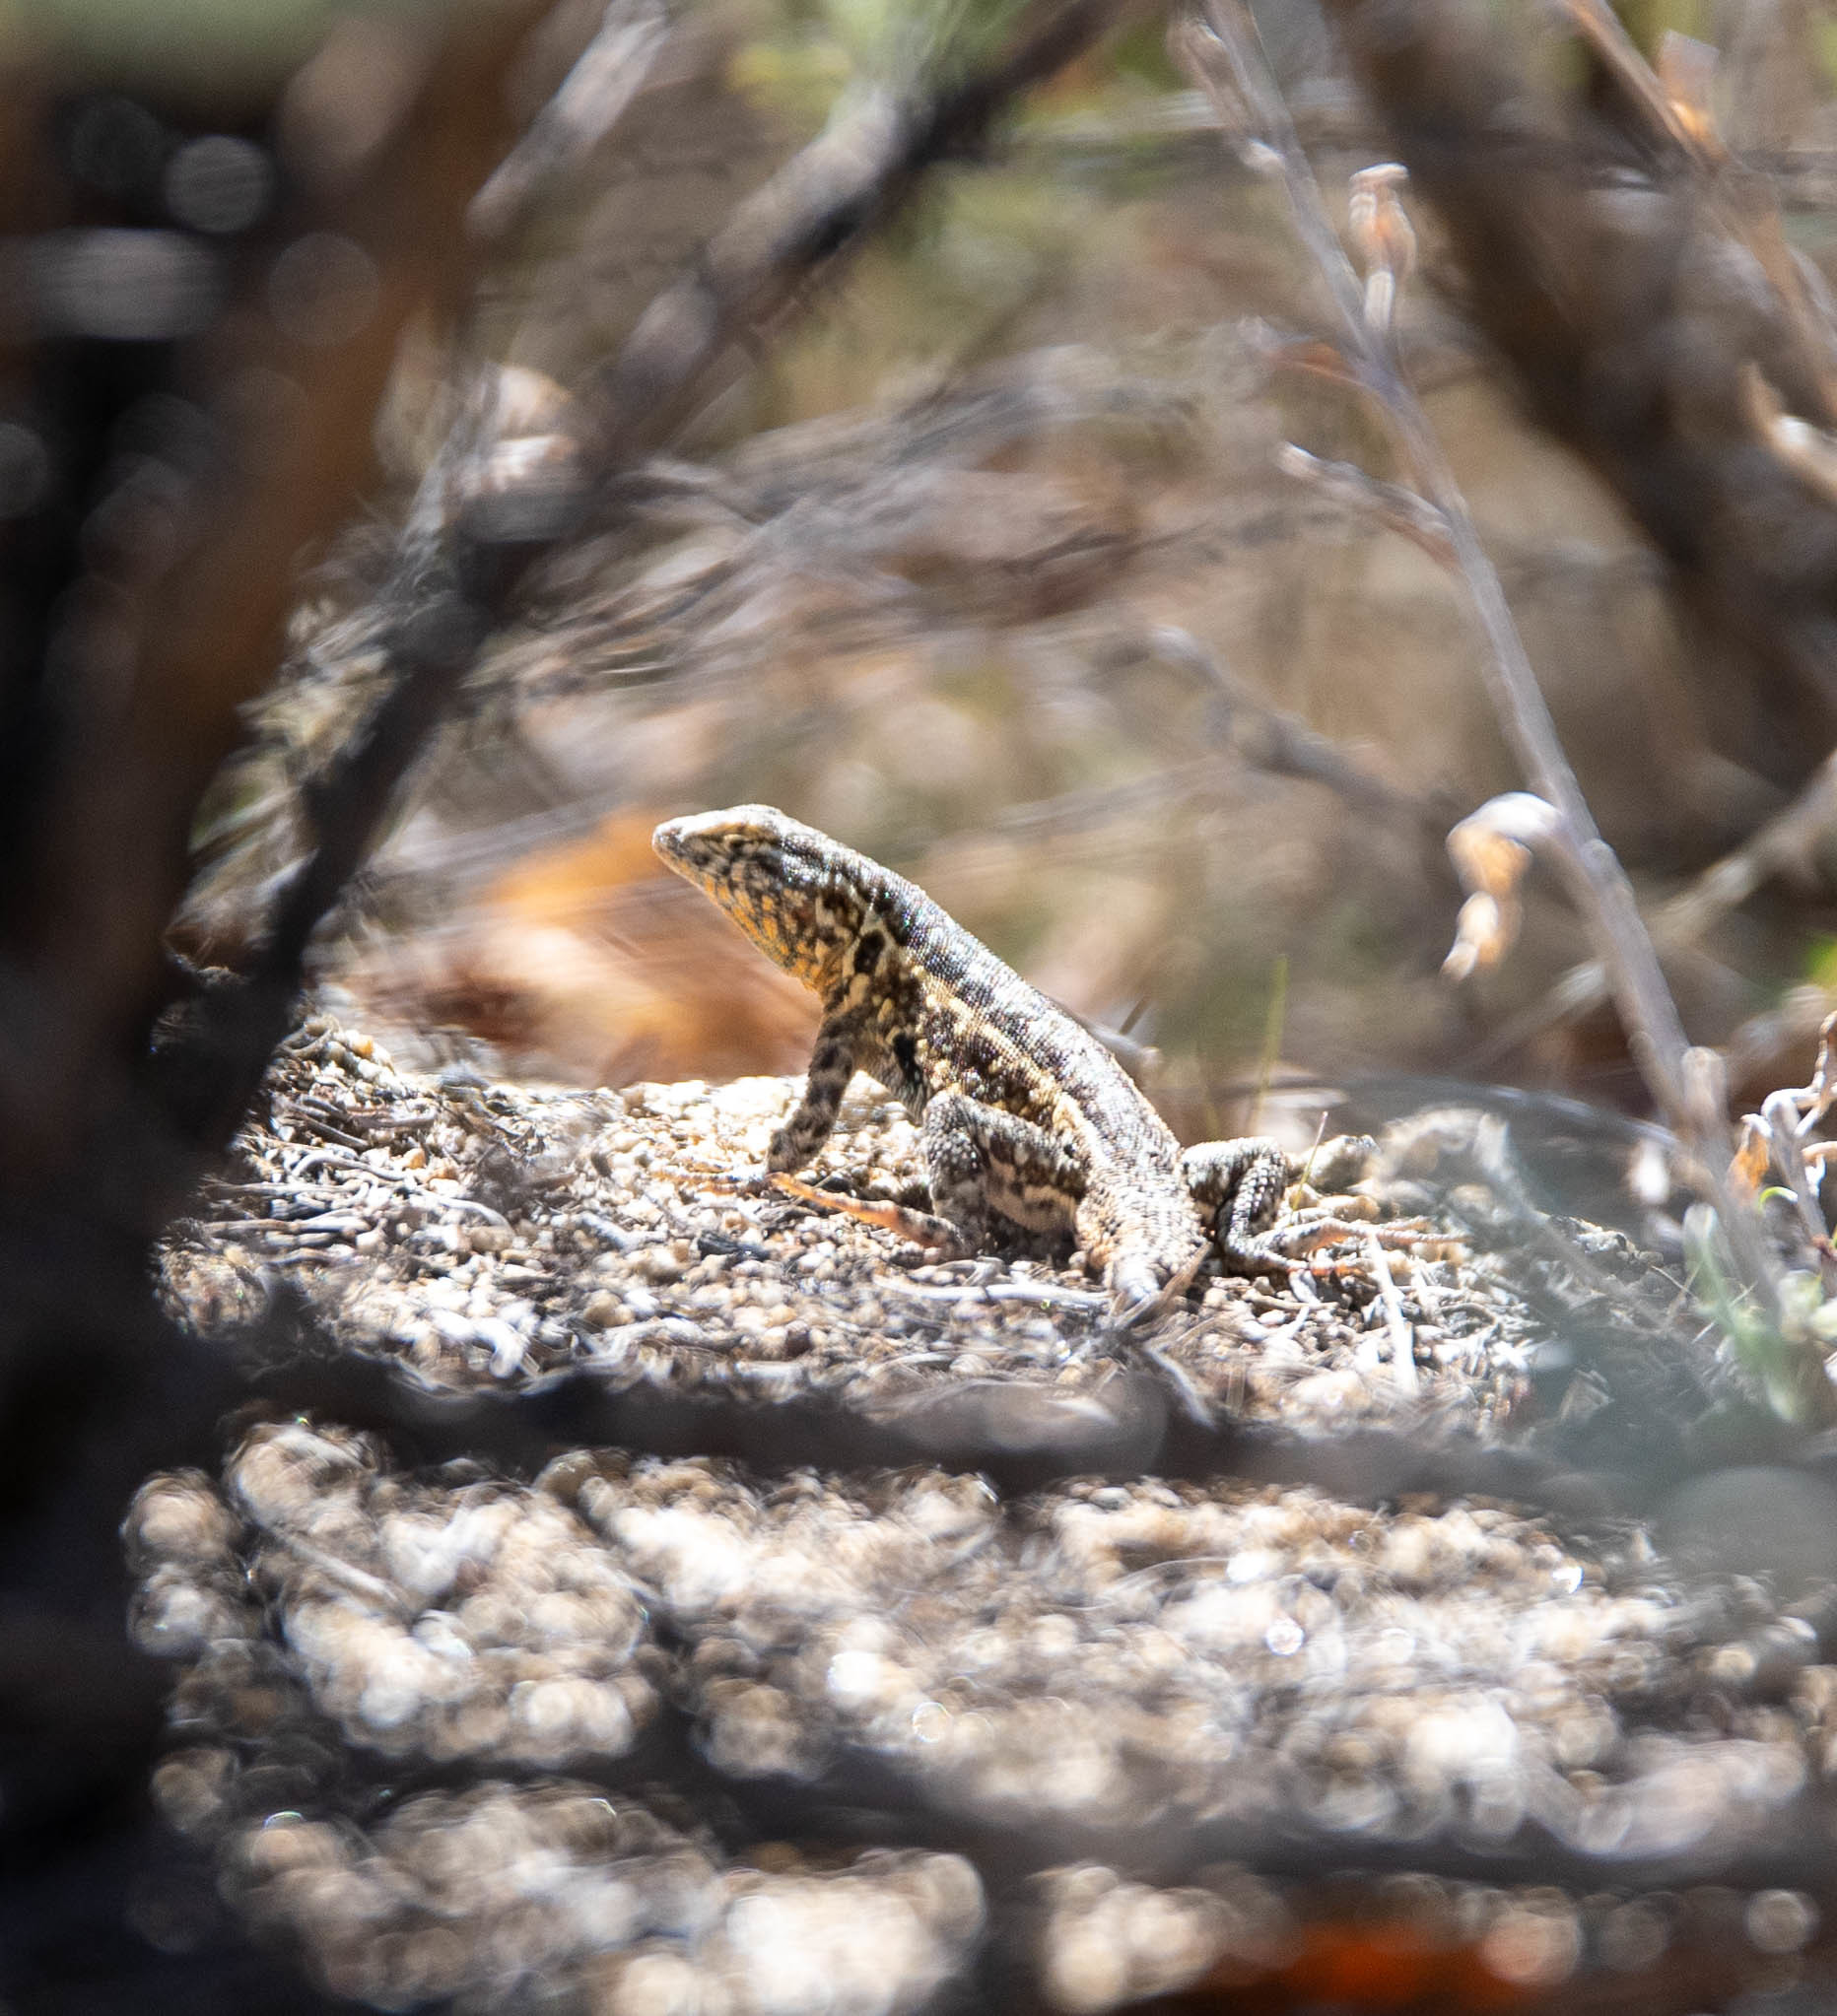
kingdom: Animalia
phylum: Chordata
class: Squamata
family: Phrynosomatidae
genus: Uta
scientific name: Uta stansburiana
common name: Side-blotched lizard
